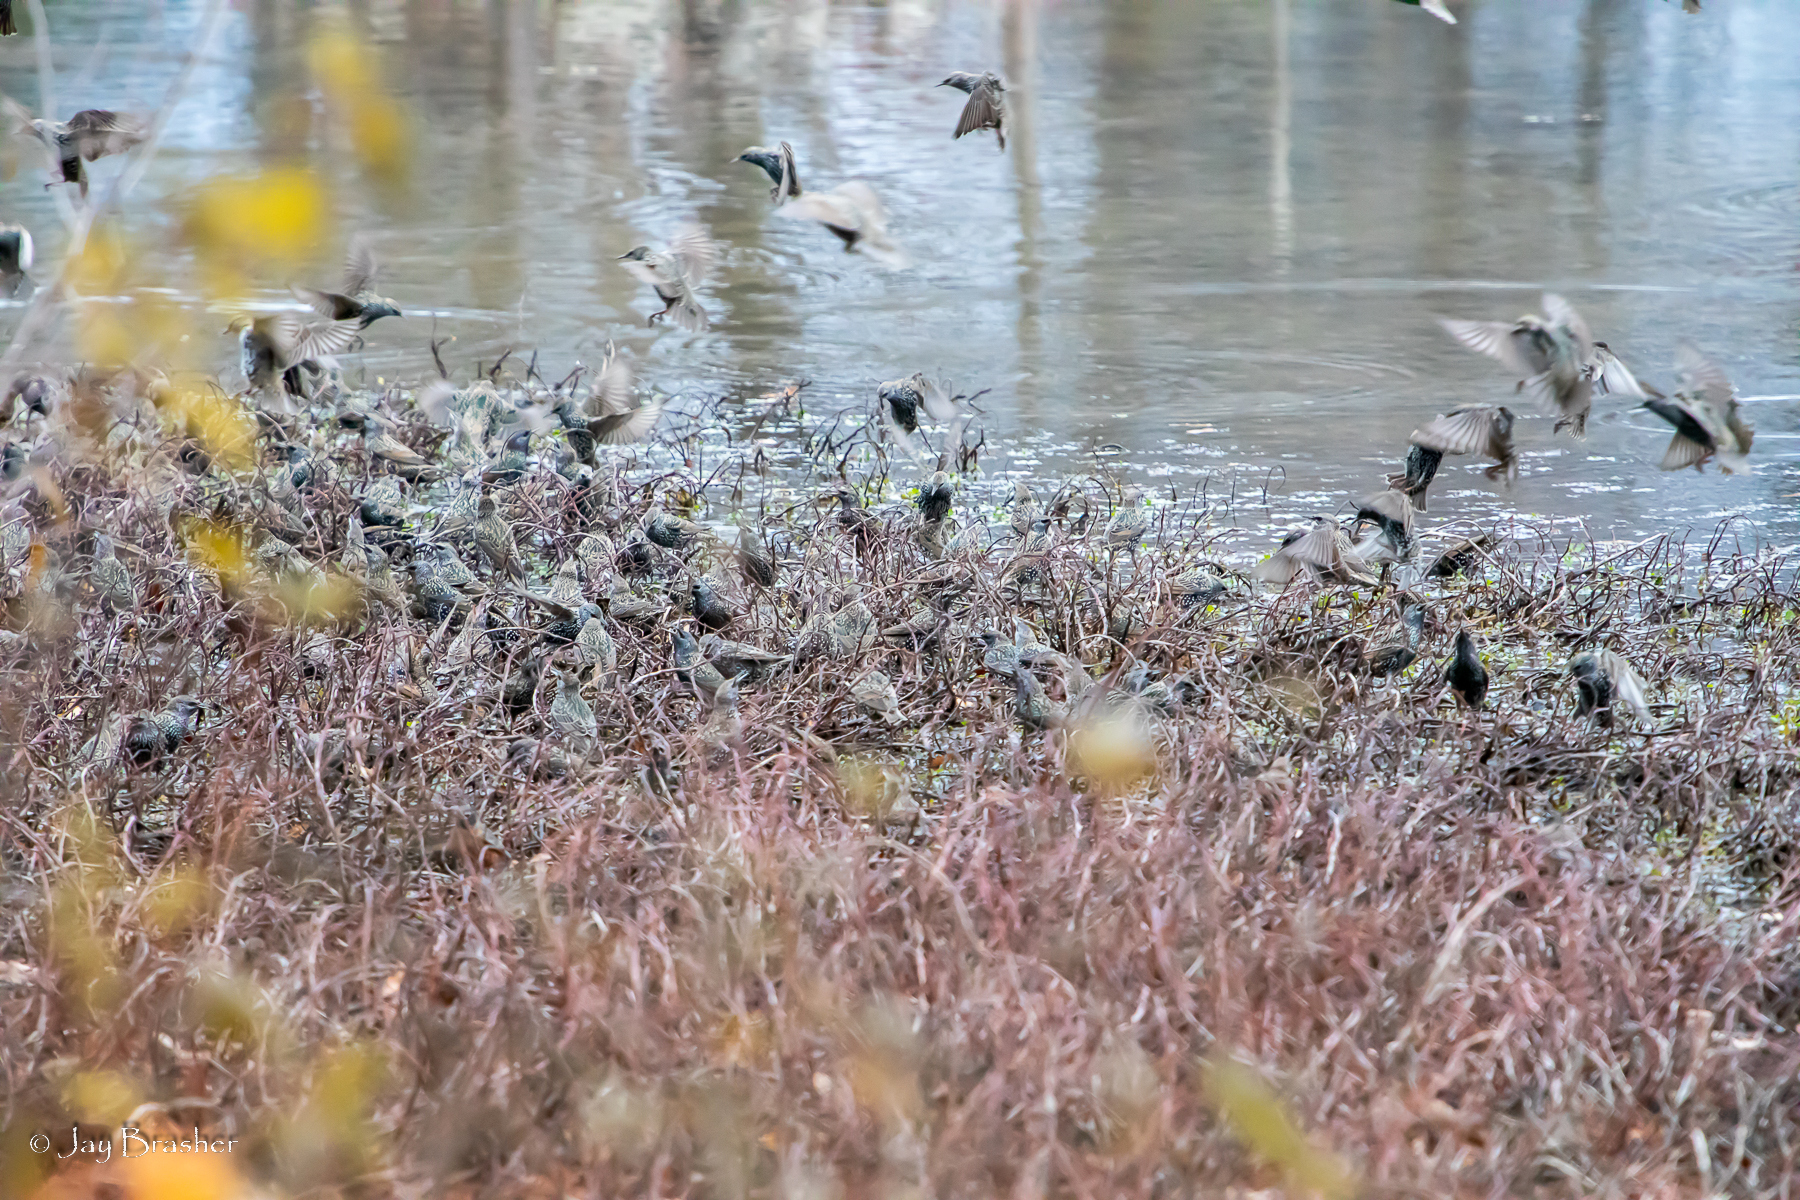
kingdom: Animalia
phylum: Chordata
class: Aves
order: Passeriformes
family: Sturnidae
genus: Sturnus
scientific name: Sturnus vulgaris
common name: Common starling
